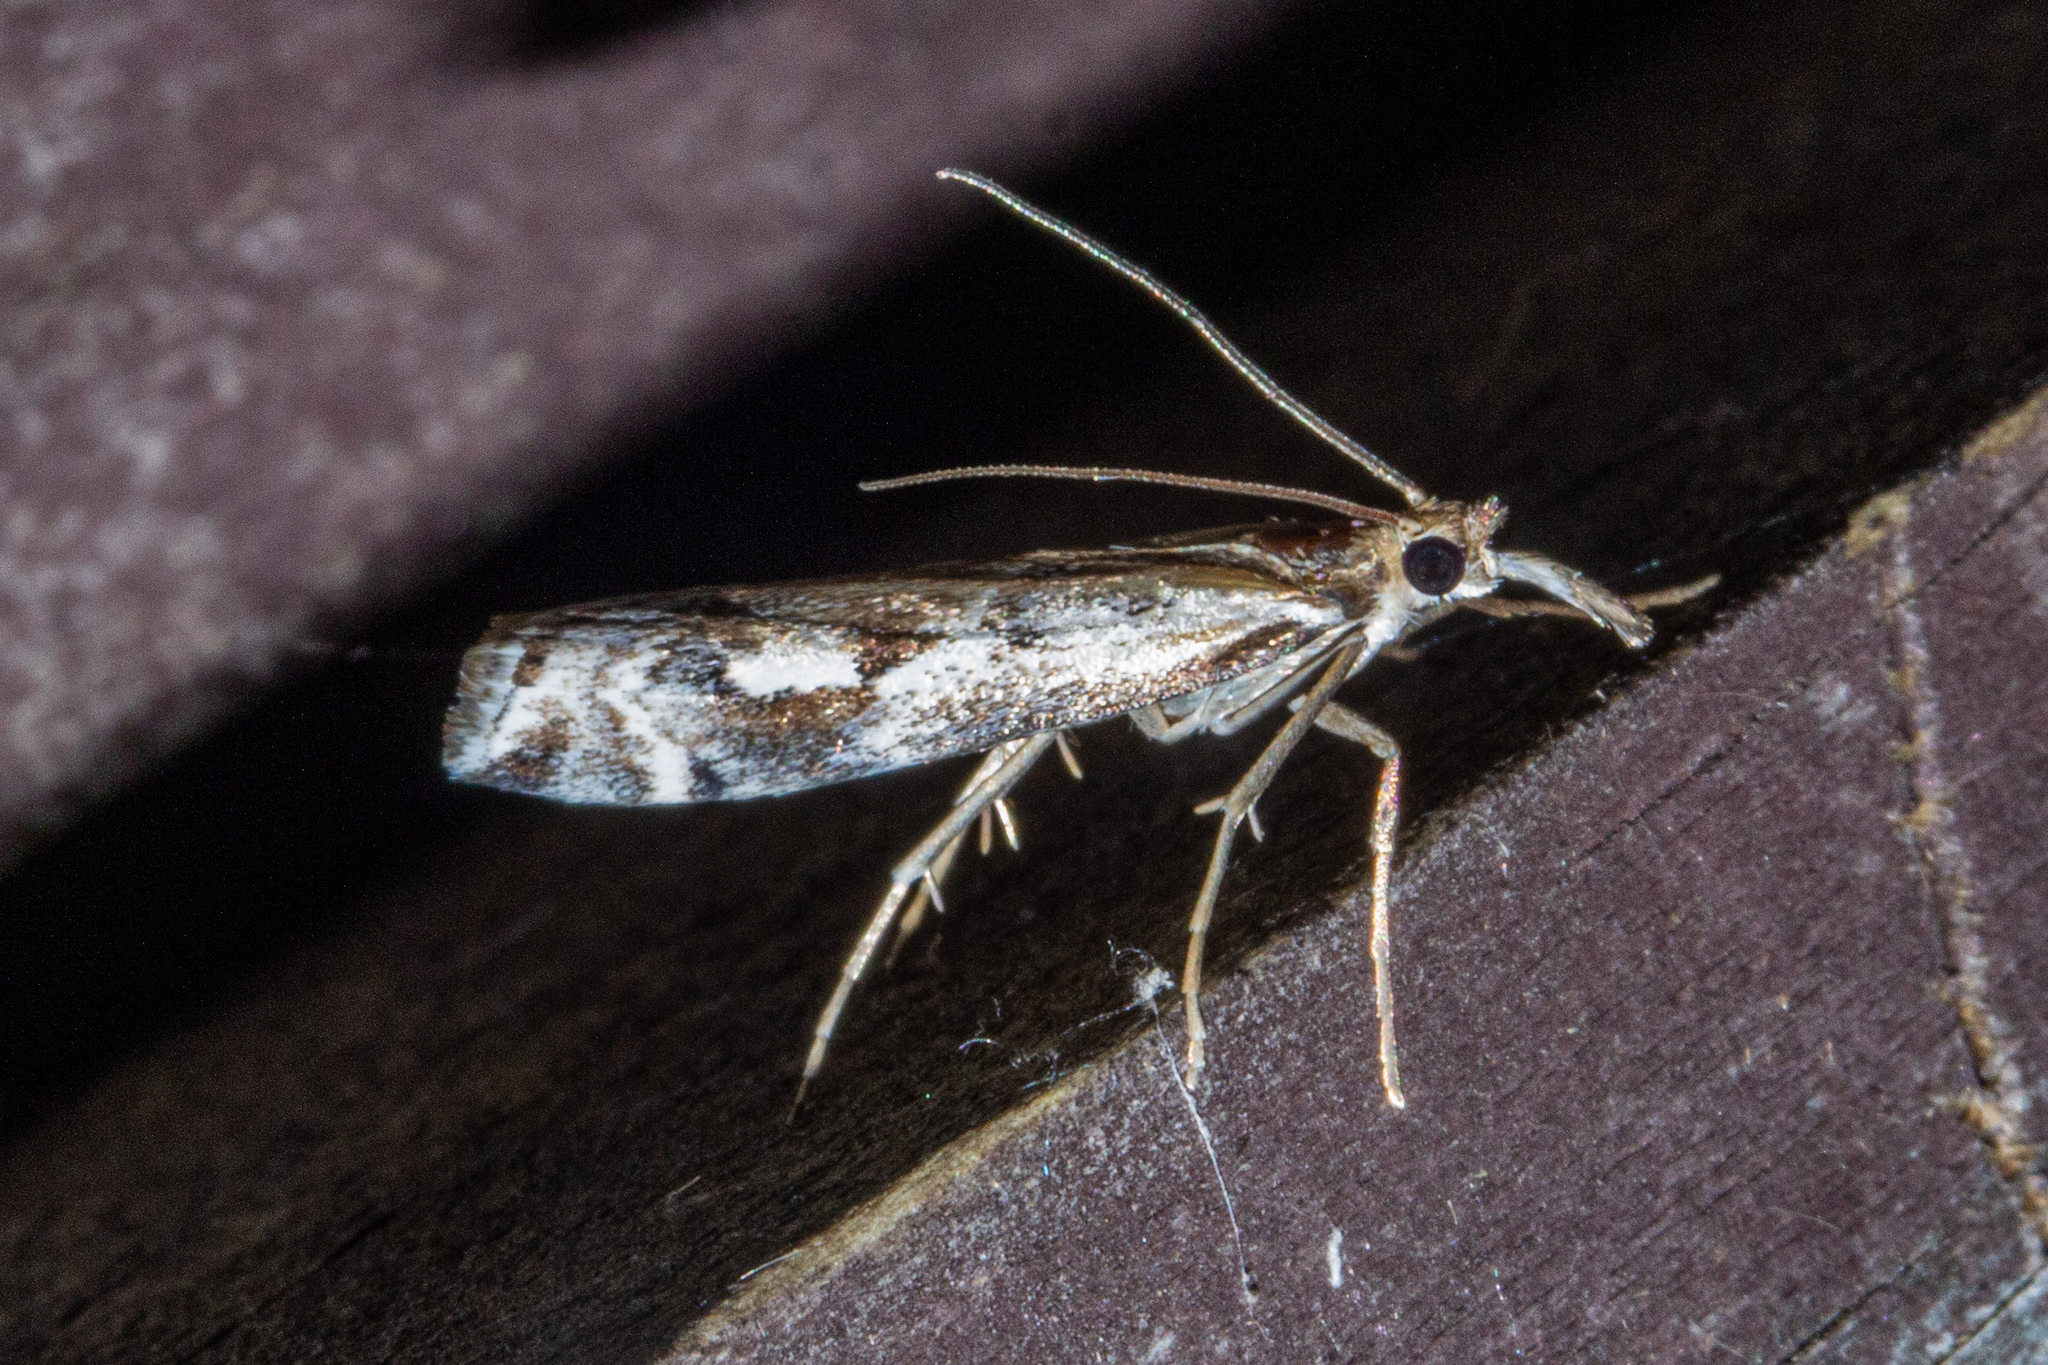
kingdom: Animalia
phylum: Arthropoda
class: Insecta
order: Lepidoptera
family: Crambidae
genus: Orocrambus
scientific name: Orocrambus vulgaris
